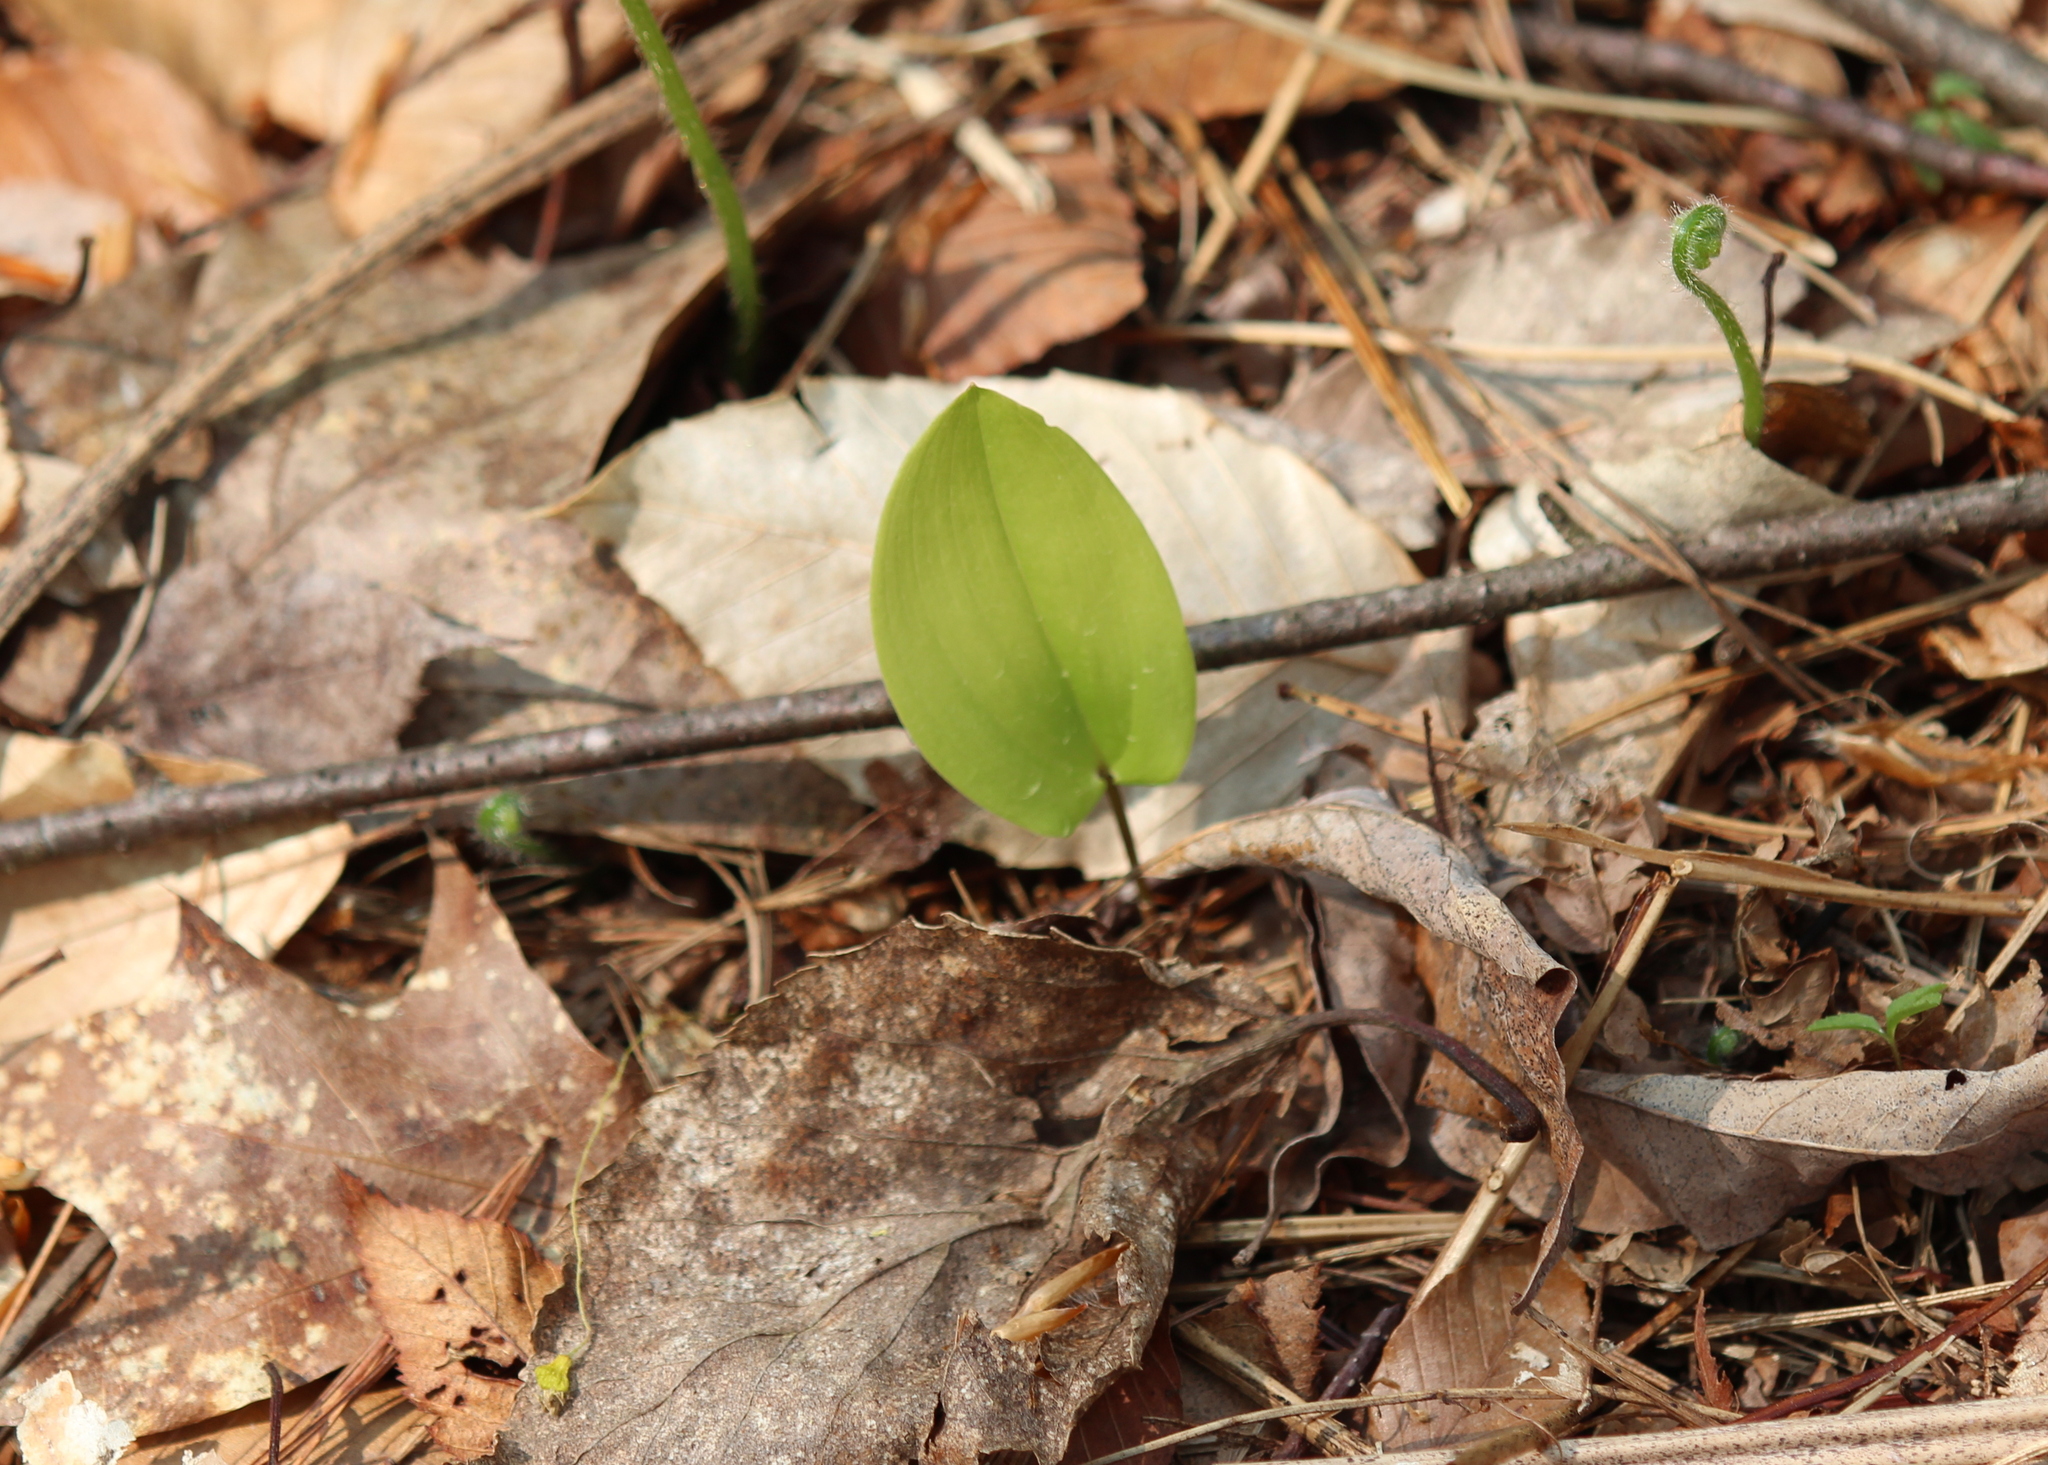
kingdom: Plantae
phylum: Tracheophyta
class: Liliopsida
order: Asparagales
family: Asparagaceae
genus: Maianthemum
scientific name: Maianthemum canadense
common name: False lily-of-the-valley
